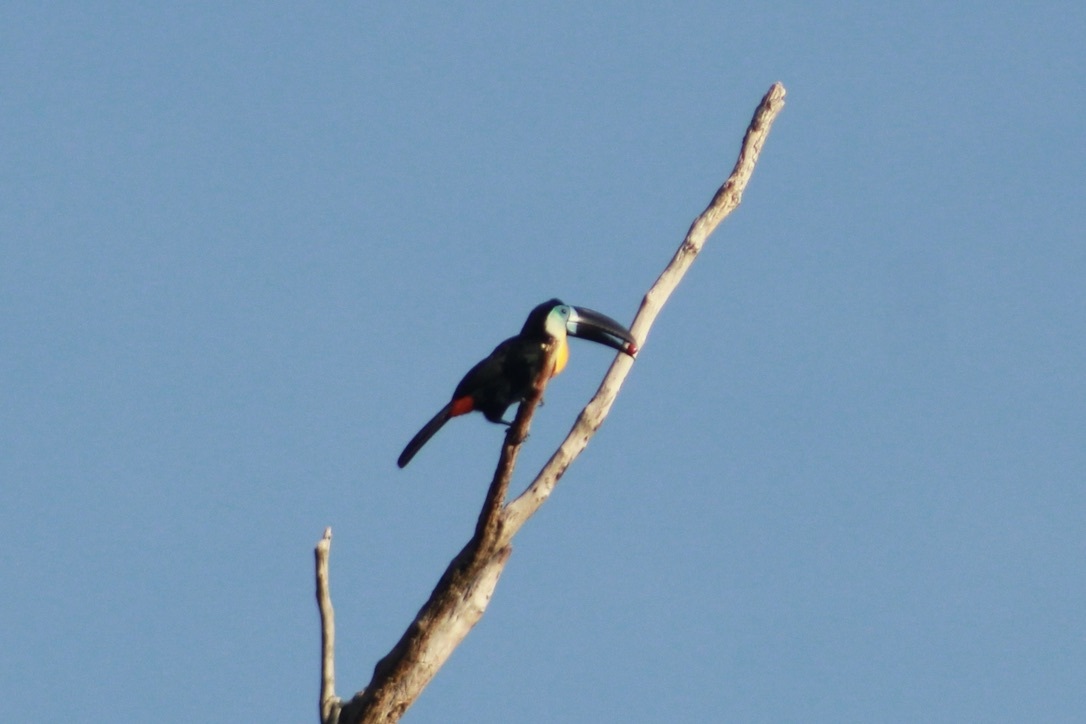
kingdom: Animalia
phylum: Chordata
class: Aves
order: Piciformes
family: Ramphastidae
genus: Ramphastos
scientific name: Ramphastos vitellinus
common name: Channel-billed toucan
